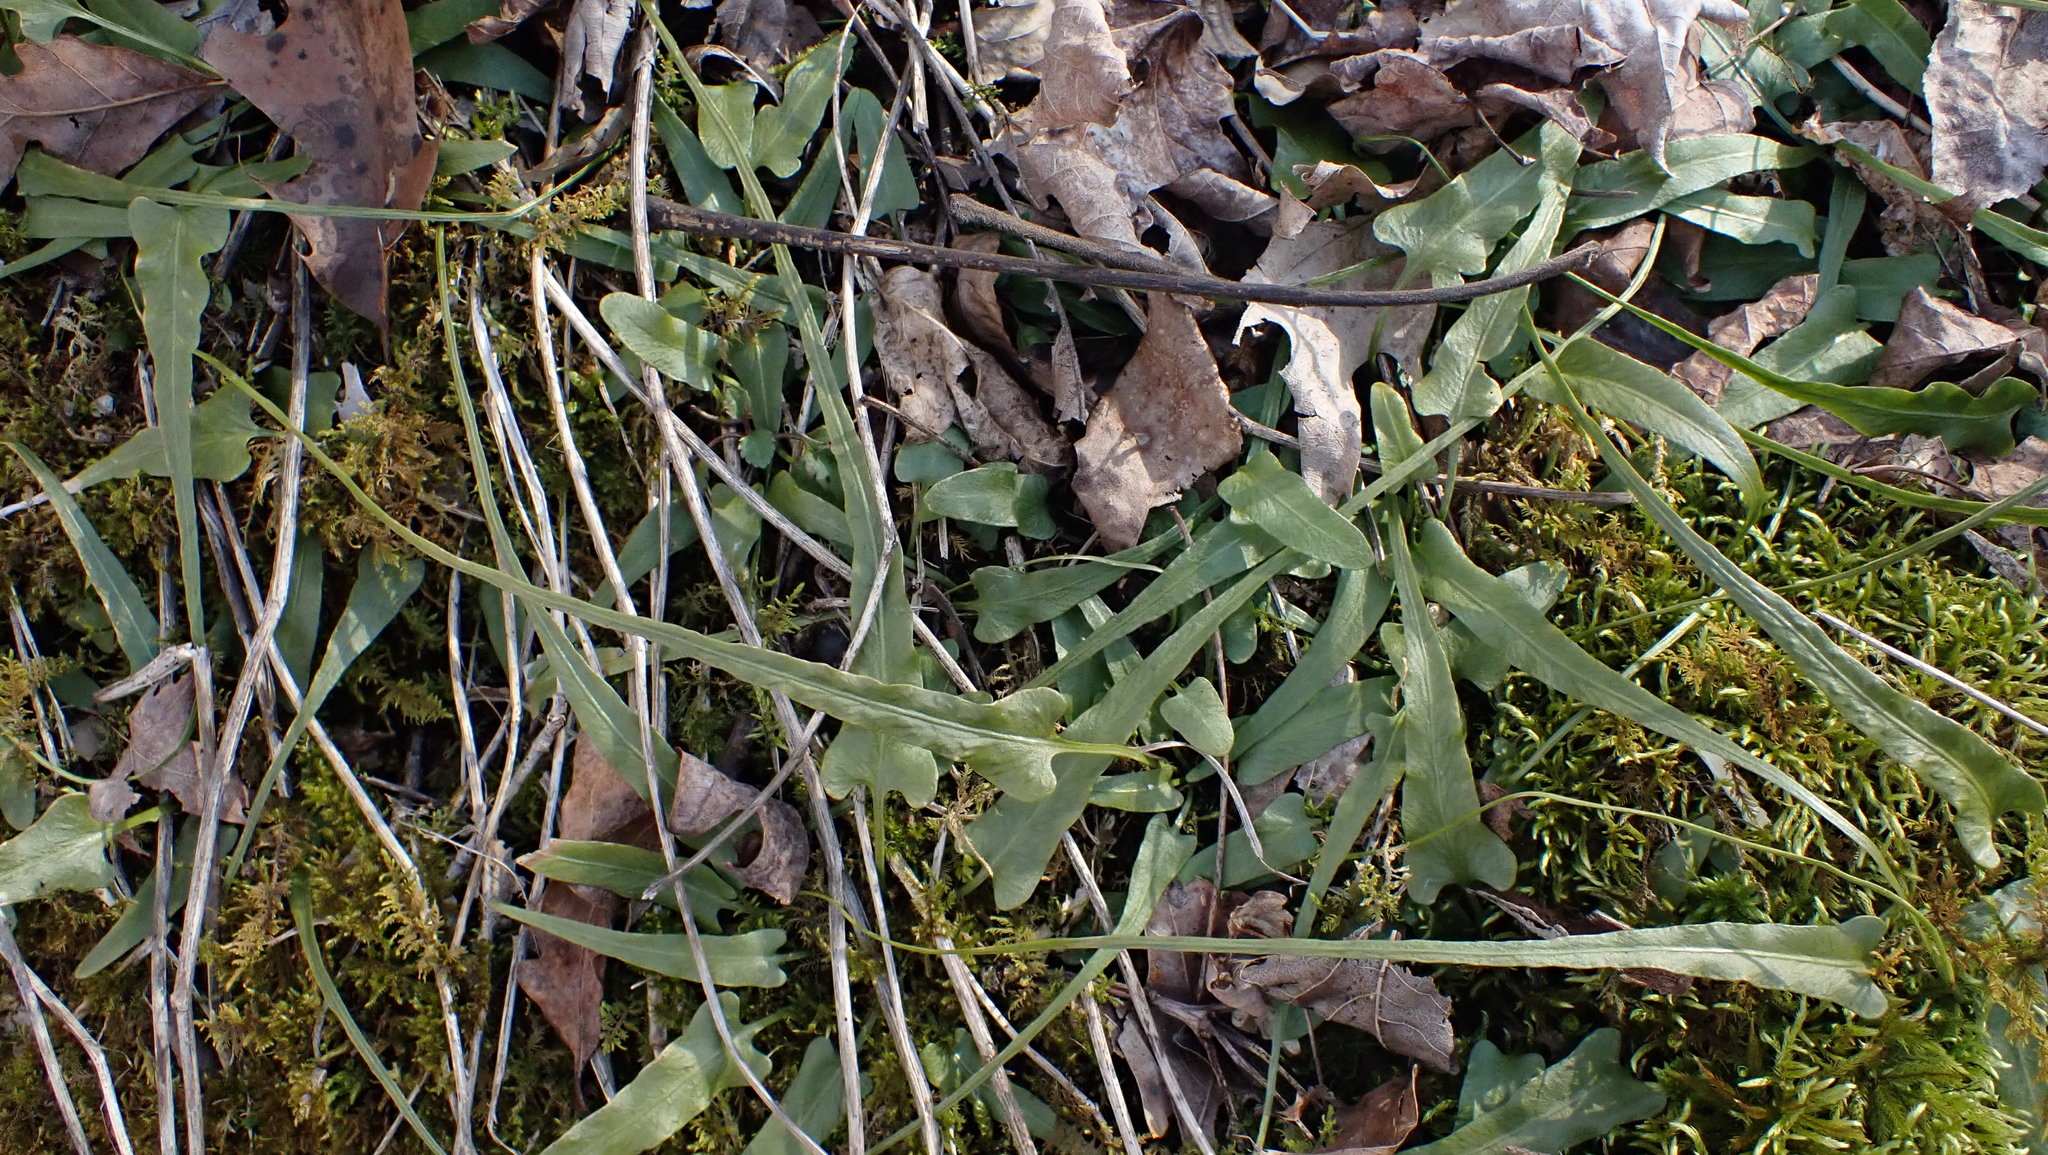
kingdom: Plantae
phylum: Tracheophyta
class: Polypodiopsida
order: Polypodiales
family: Aspleniaceae
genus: Asplenium
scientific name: Asplenium rhizophyllum
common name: Walking fern
